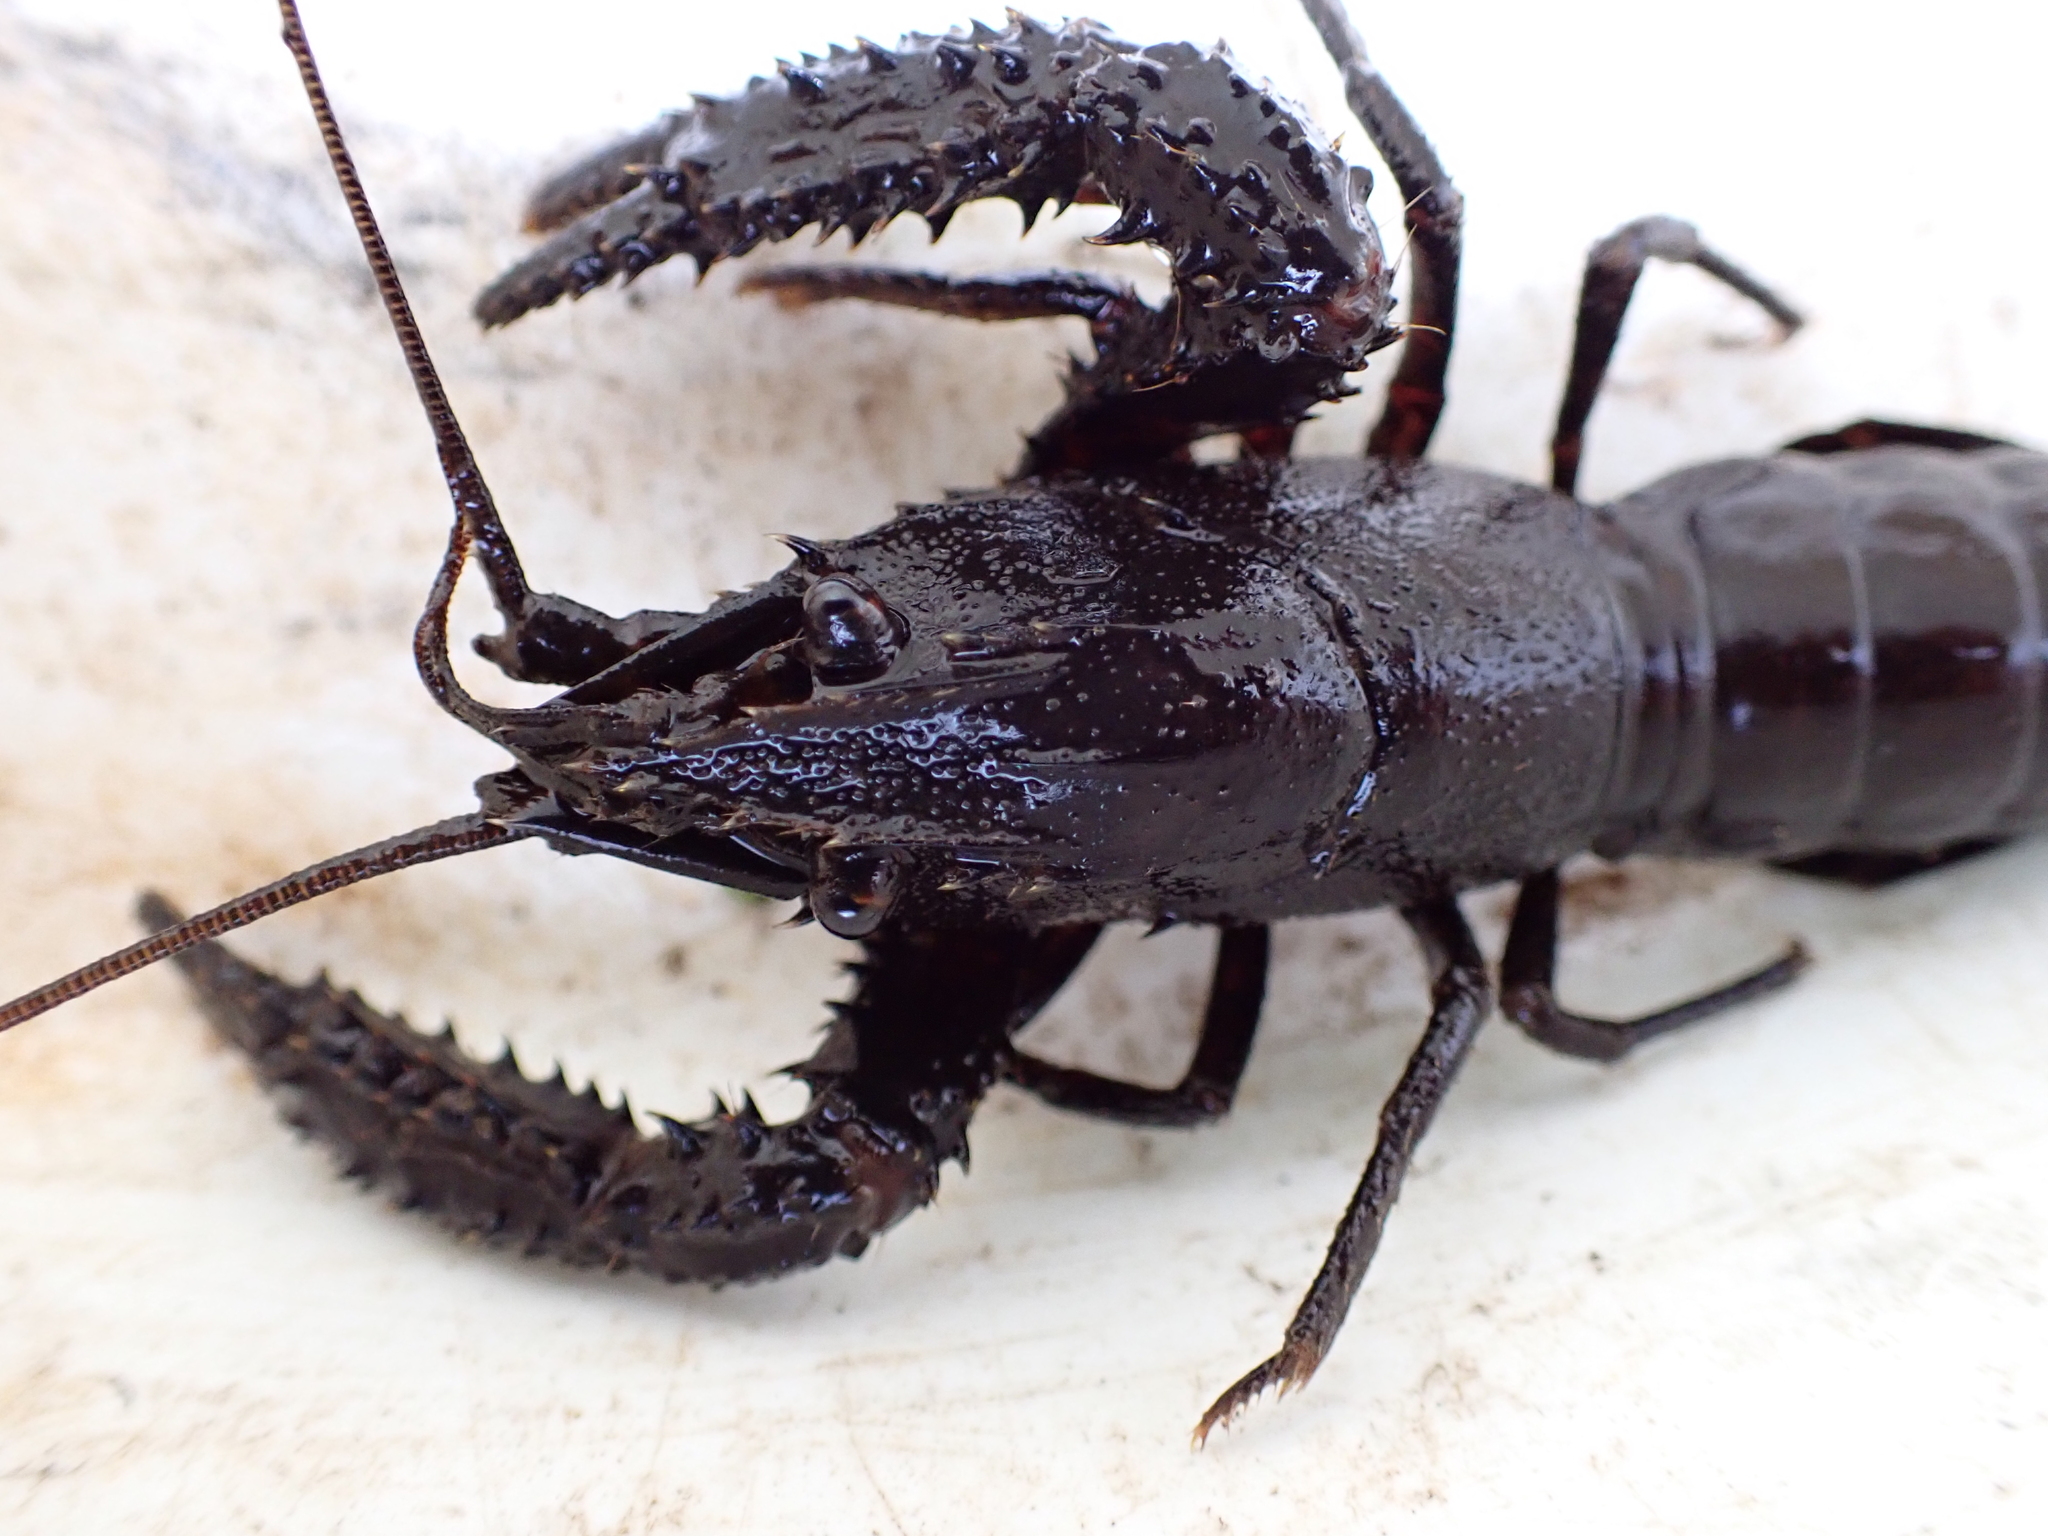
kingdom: Animalia
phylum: Arthropoda
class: Malacostraca
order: Decapoda
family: Parastacidae
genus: Paranephrops
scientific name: Paranephrops planifrons
